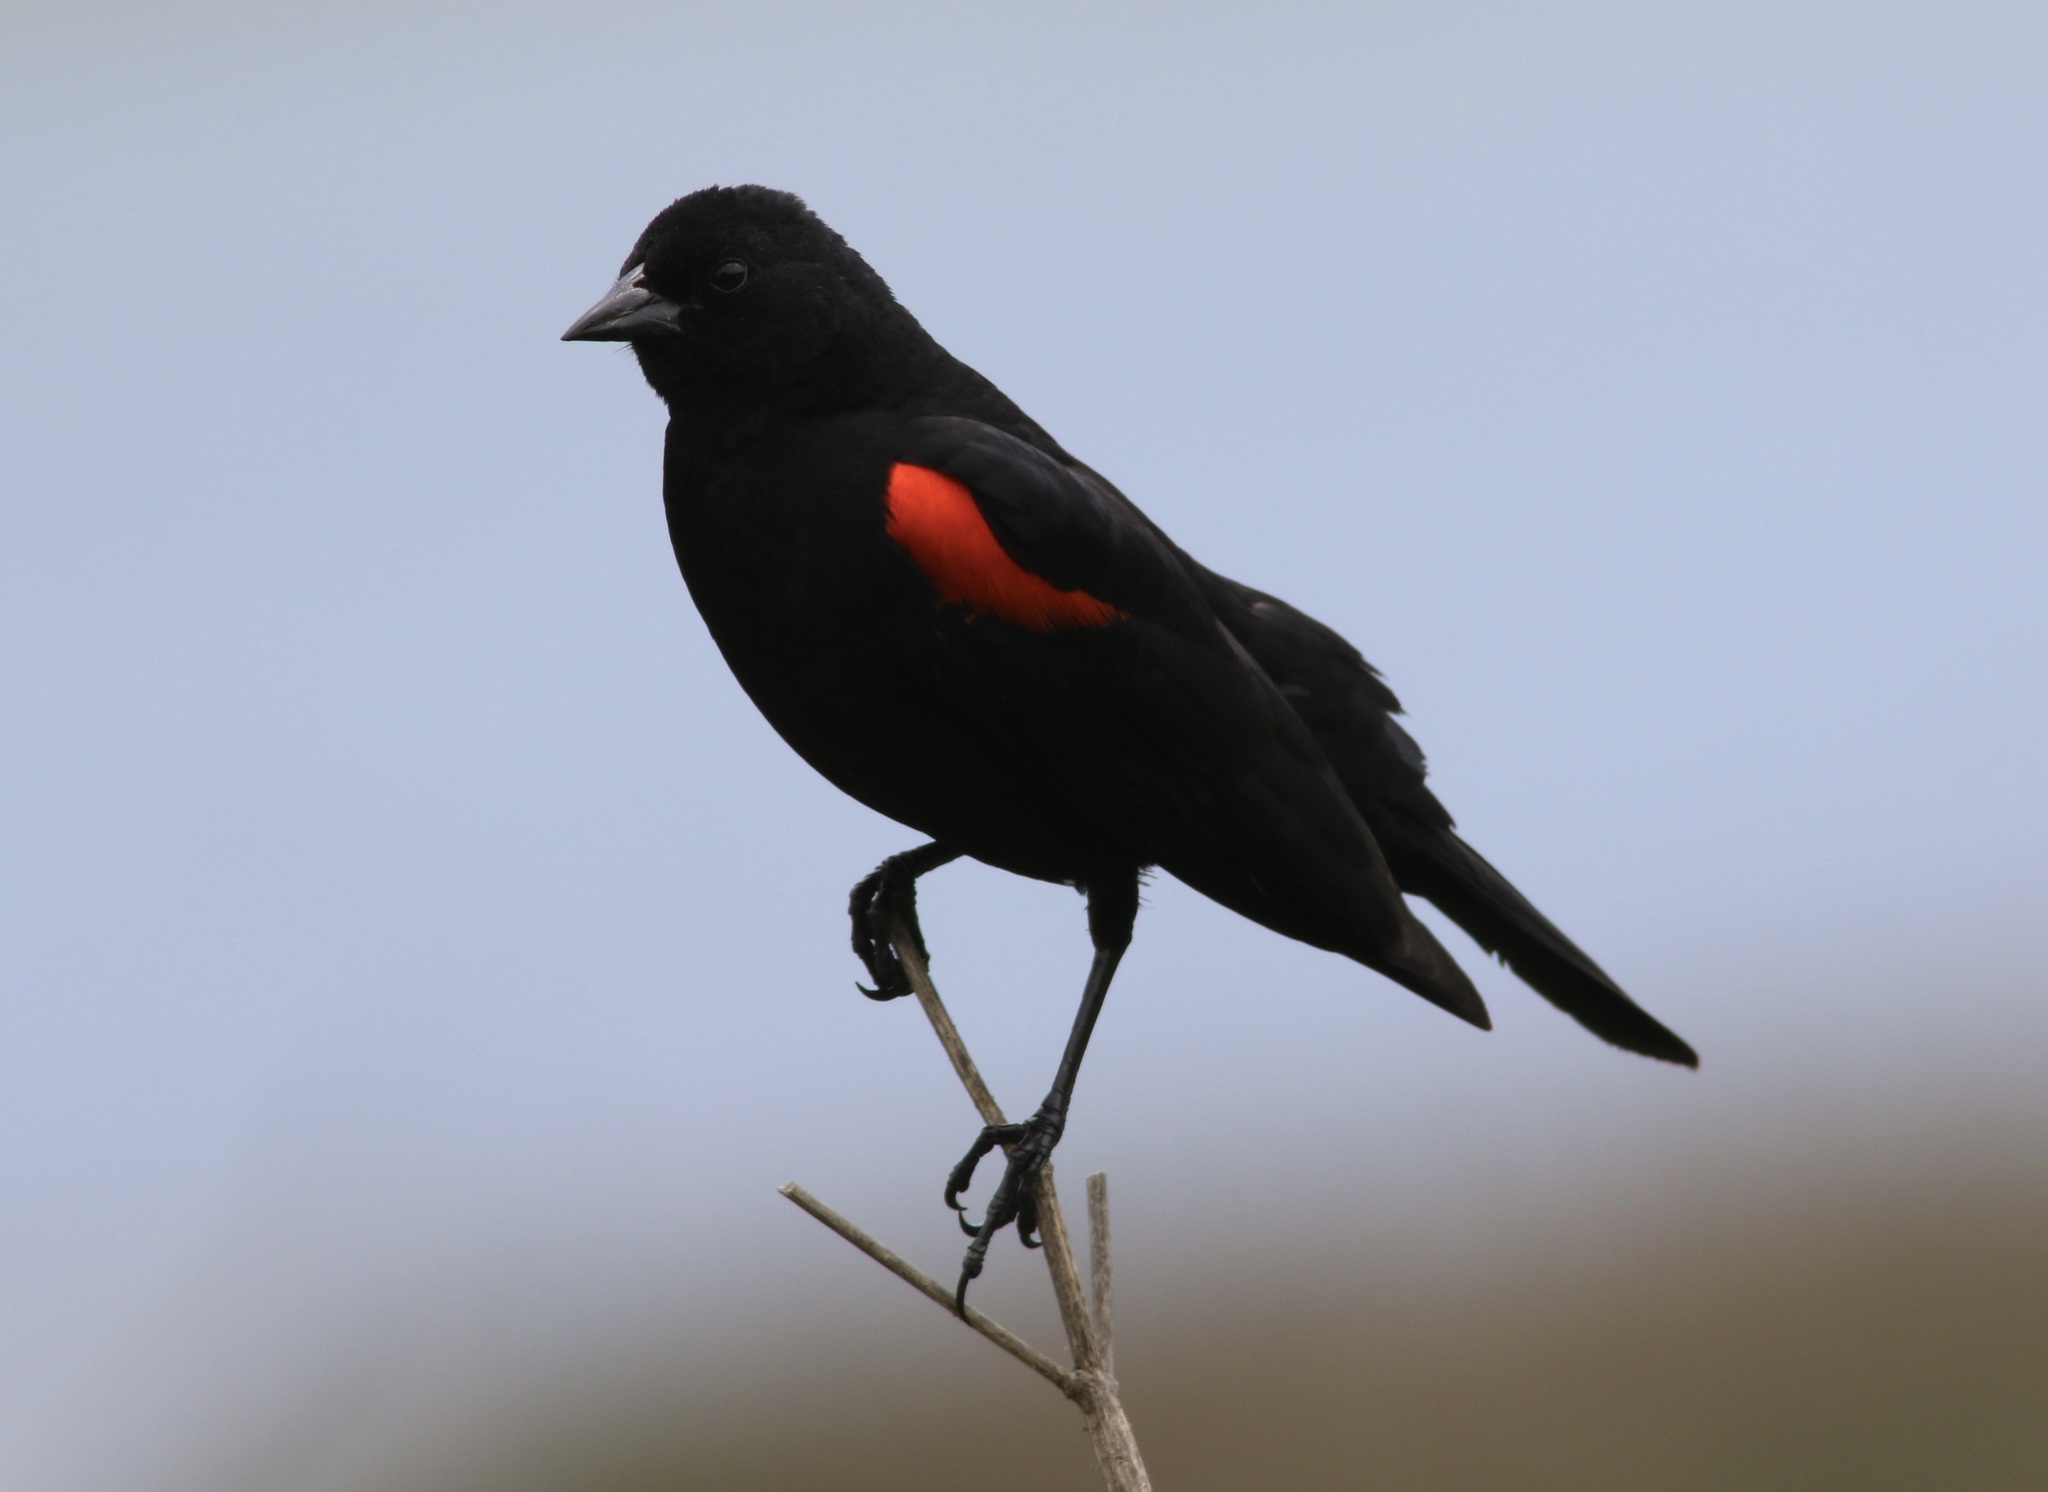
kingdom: Animalia
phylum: Chordata
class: Aves
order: Passeriformes
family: Icteridae
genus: Agelaius
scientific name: Agelaius phoeniceus
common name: Red-winged blackbird
